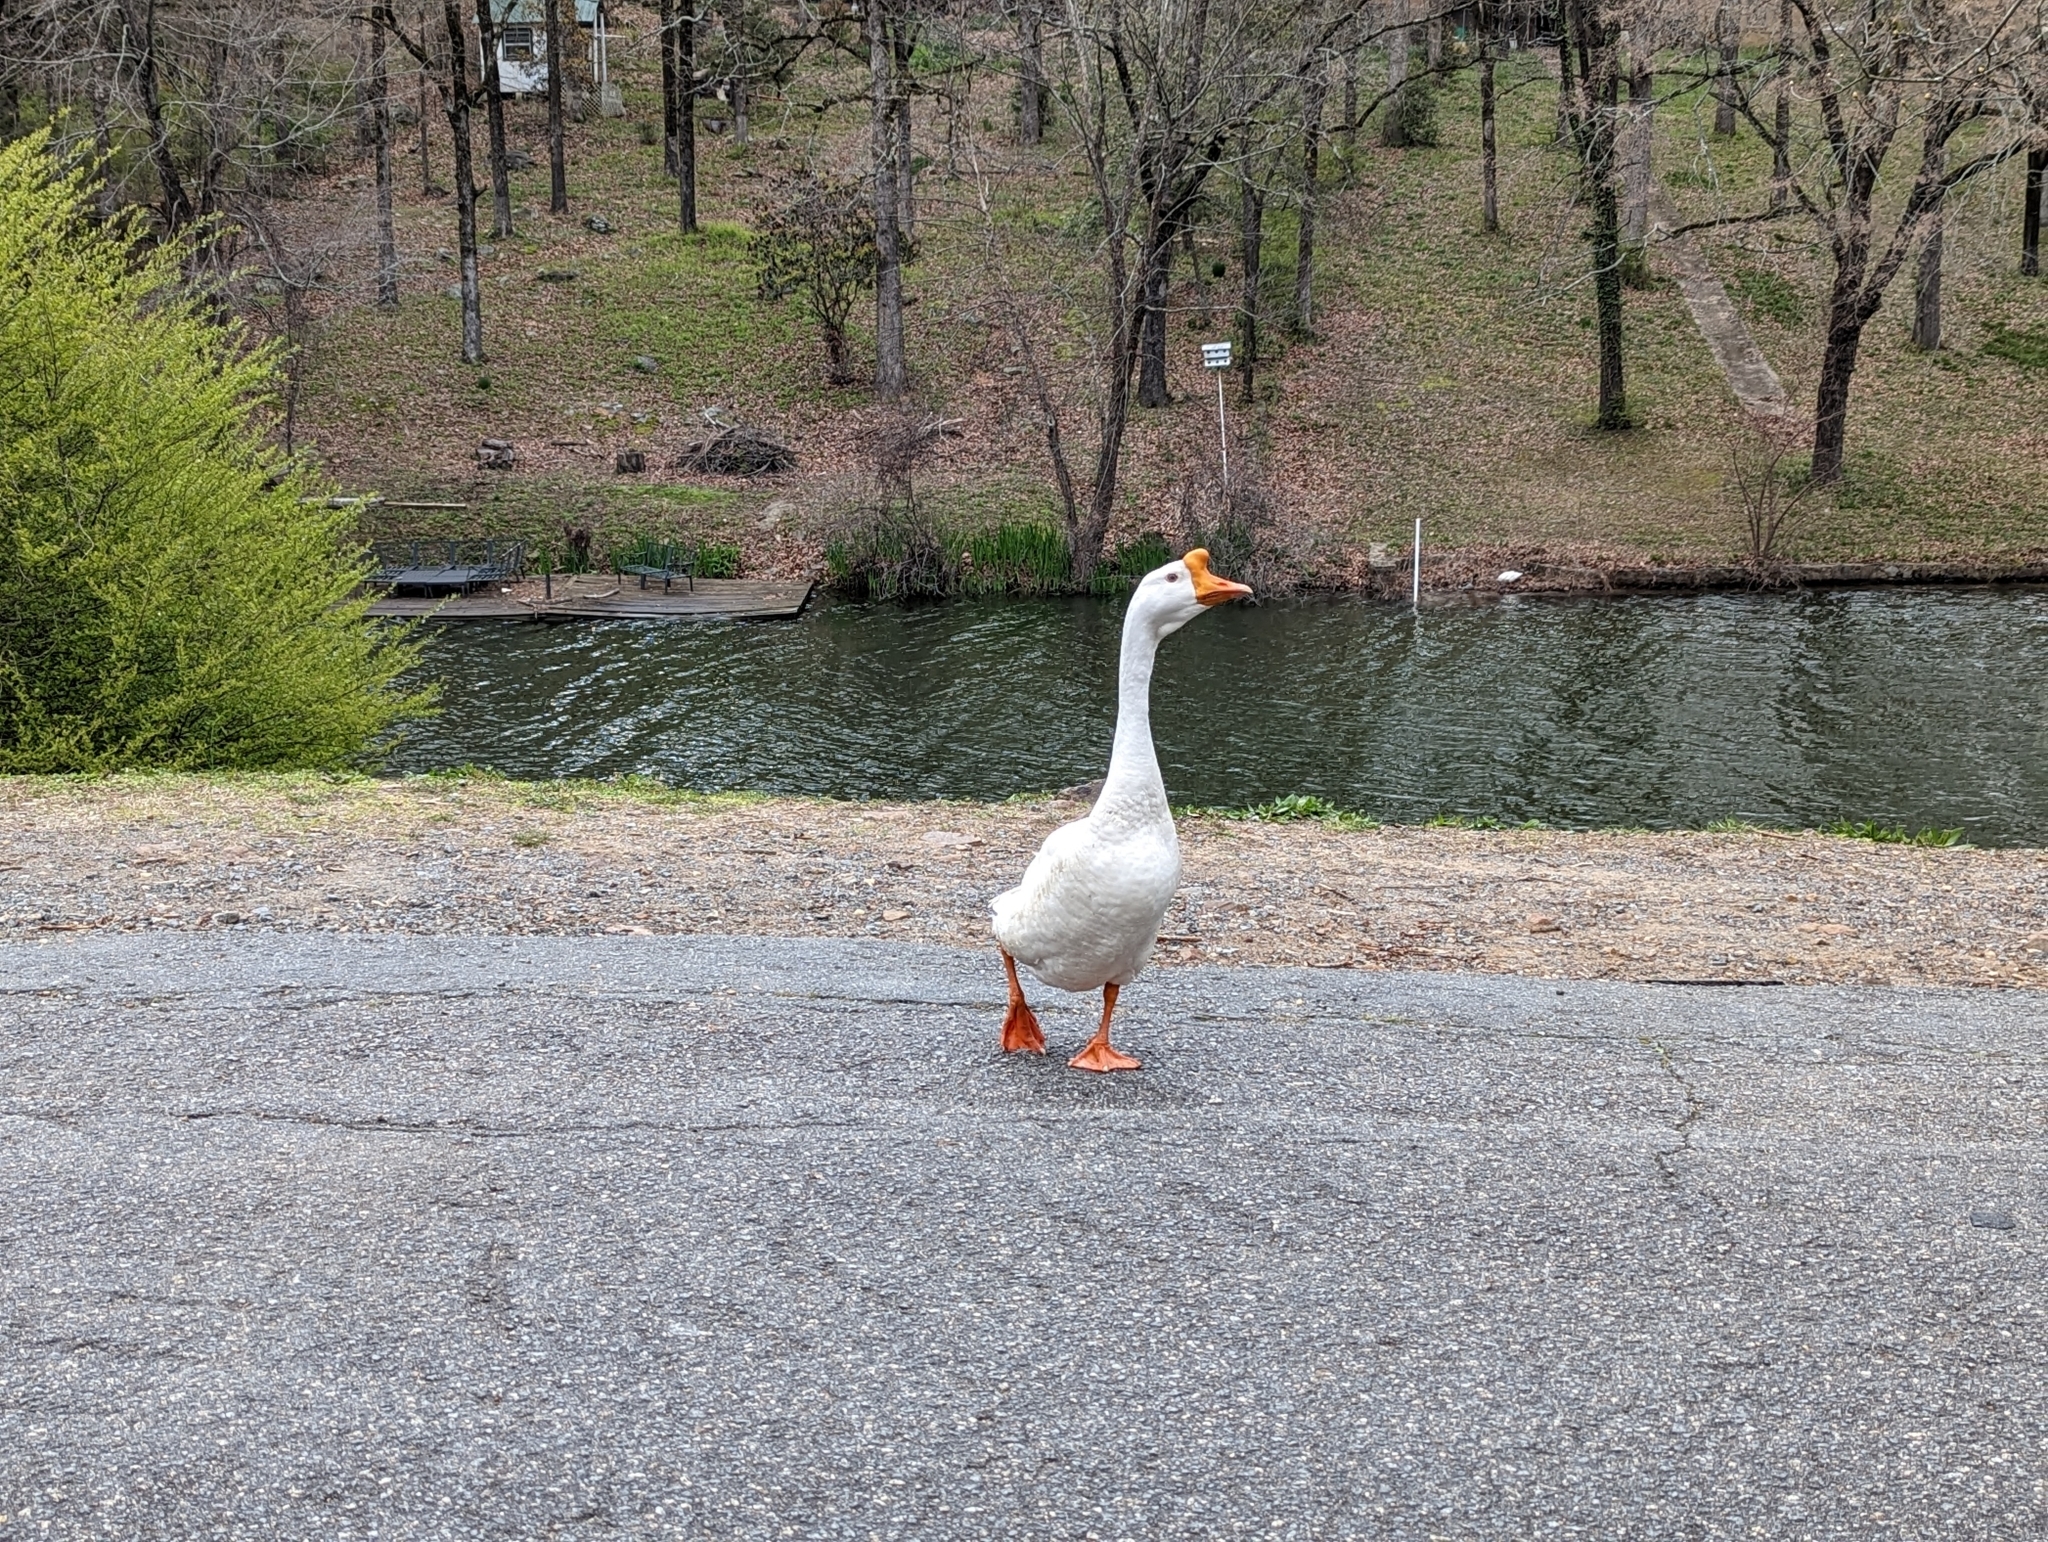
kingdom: Animalia
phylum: Chordata
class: Aves
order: Anseriformes
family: Anatidae
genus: Anser
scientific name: Anser cygnoides
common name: Swan goose
